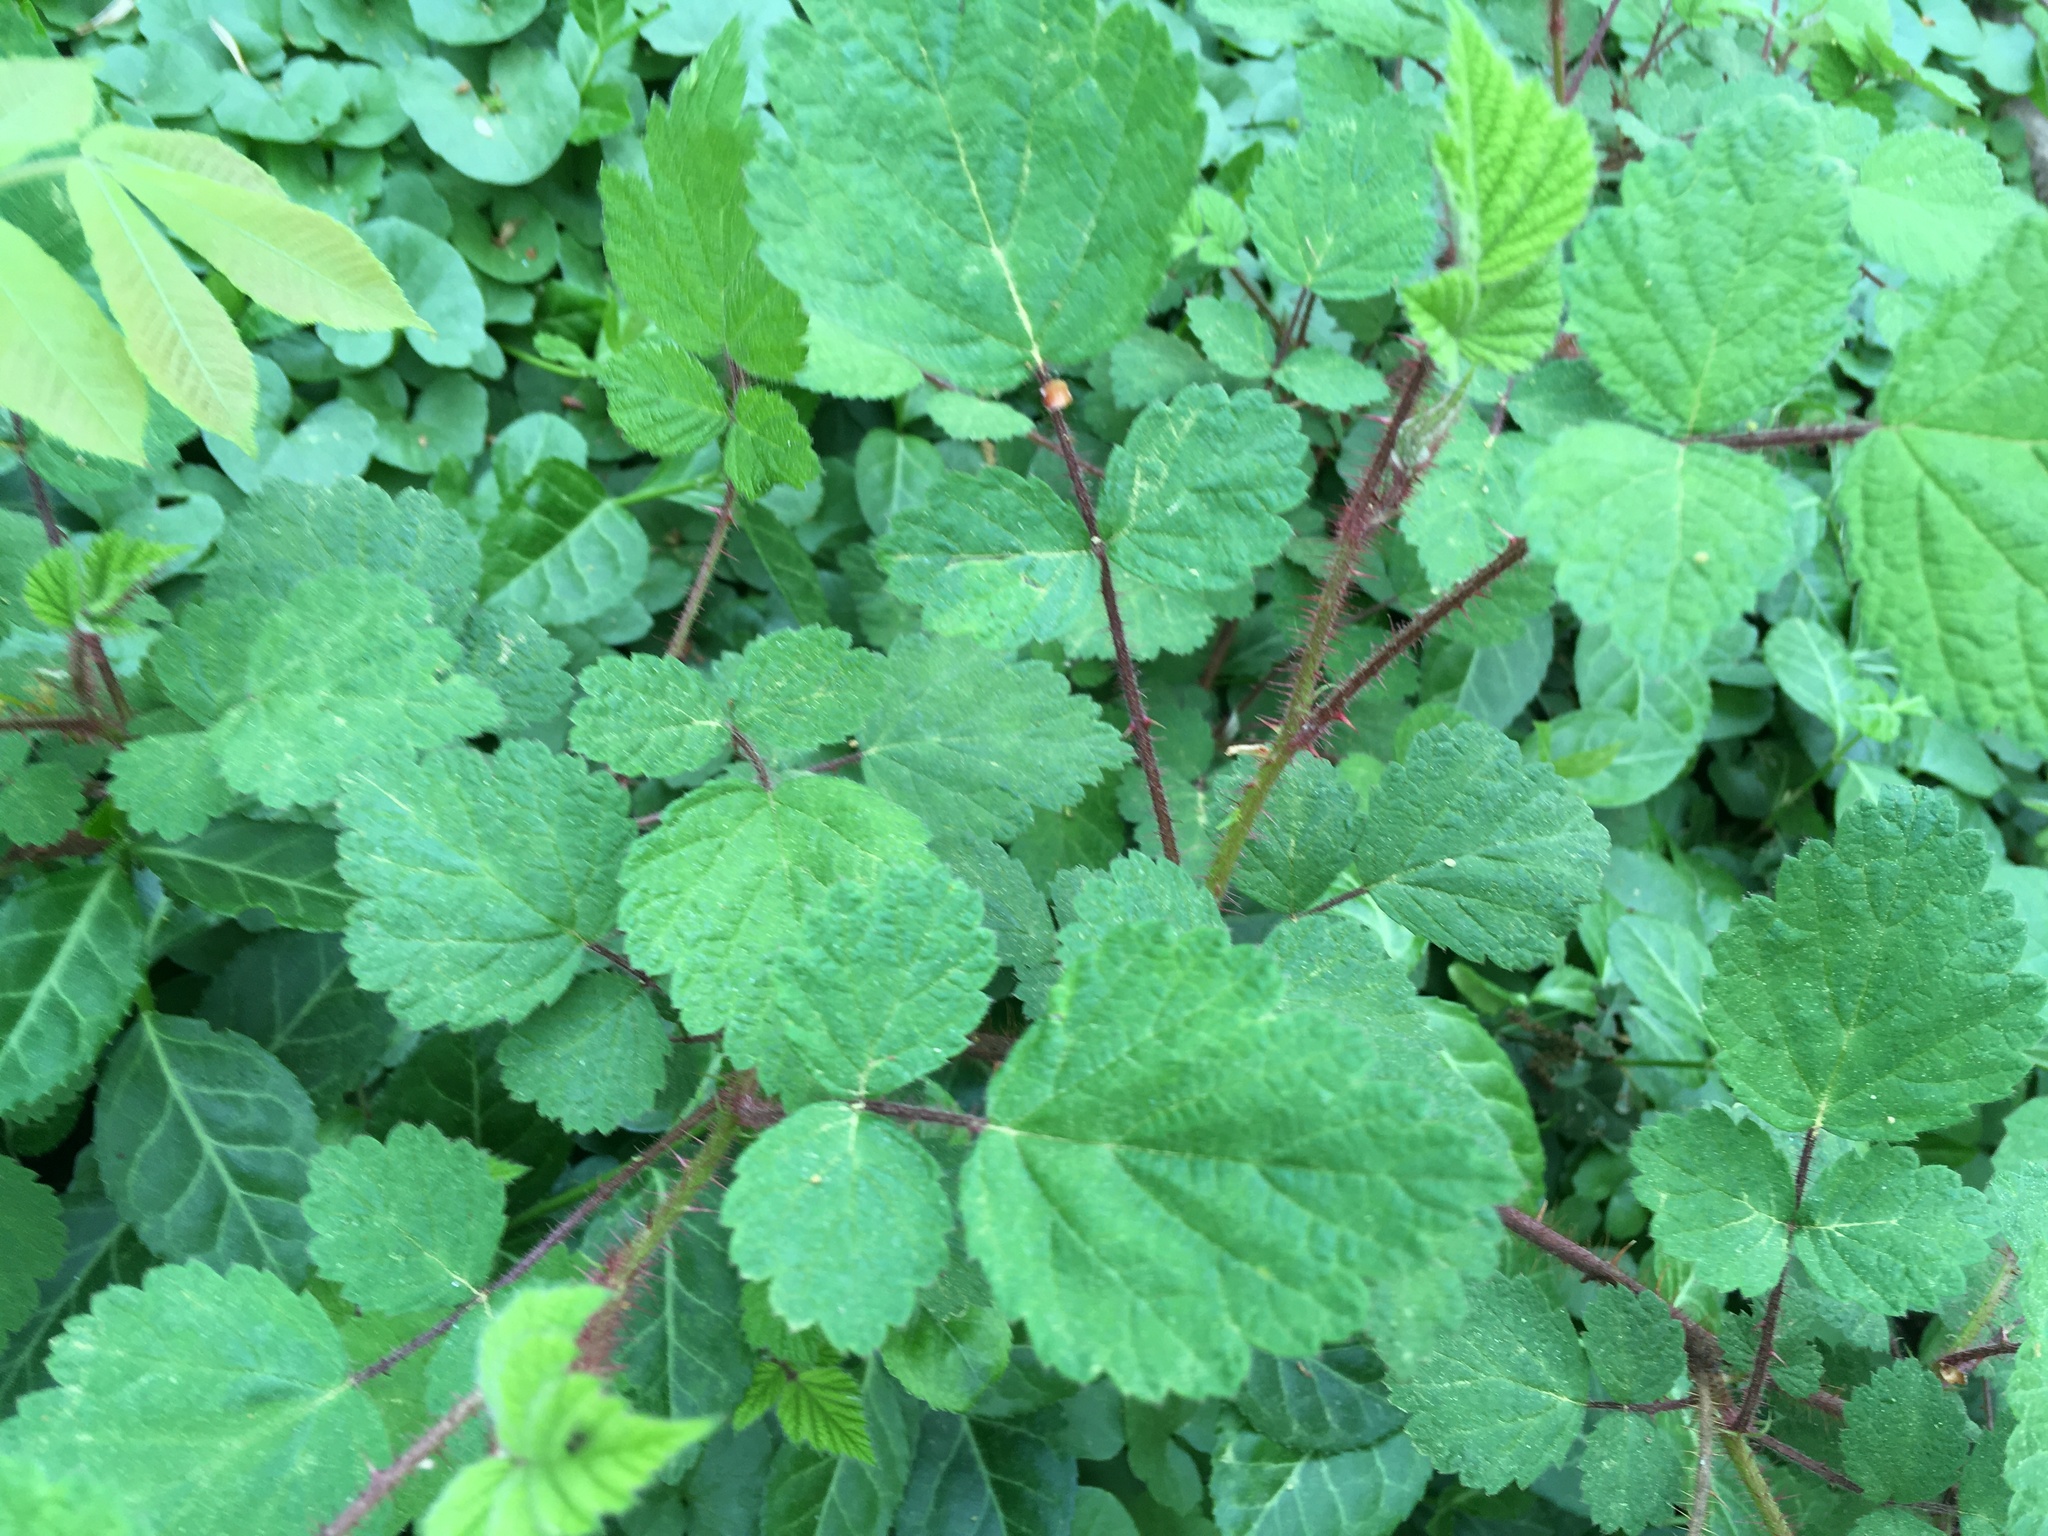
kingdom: Plantae
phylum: Tracheophyta
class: Magnoliopsida
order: Rosales
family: Rosaceae
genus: Rubus
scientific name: Rubus phoenicolasius
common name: Japanese wineberry
